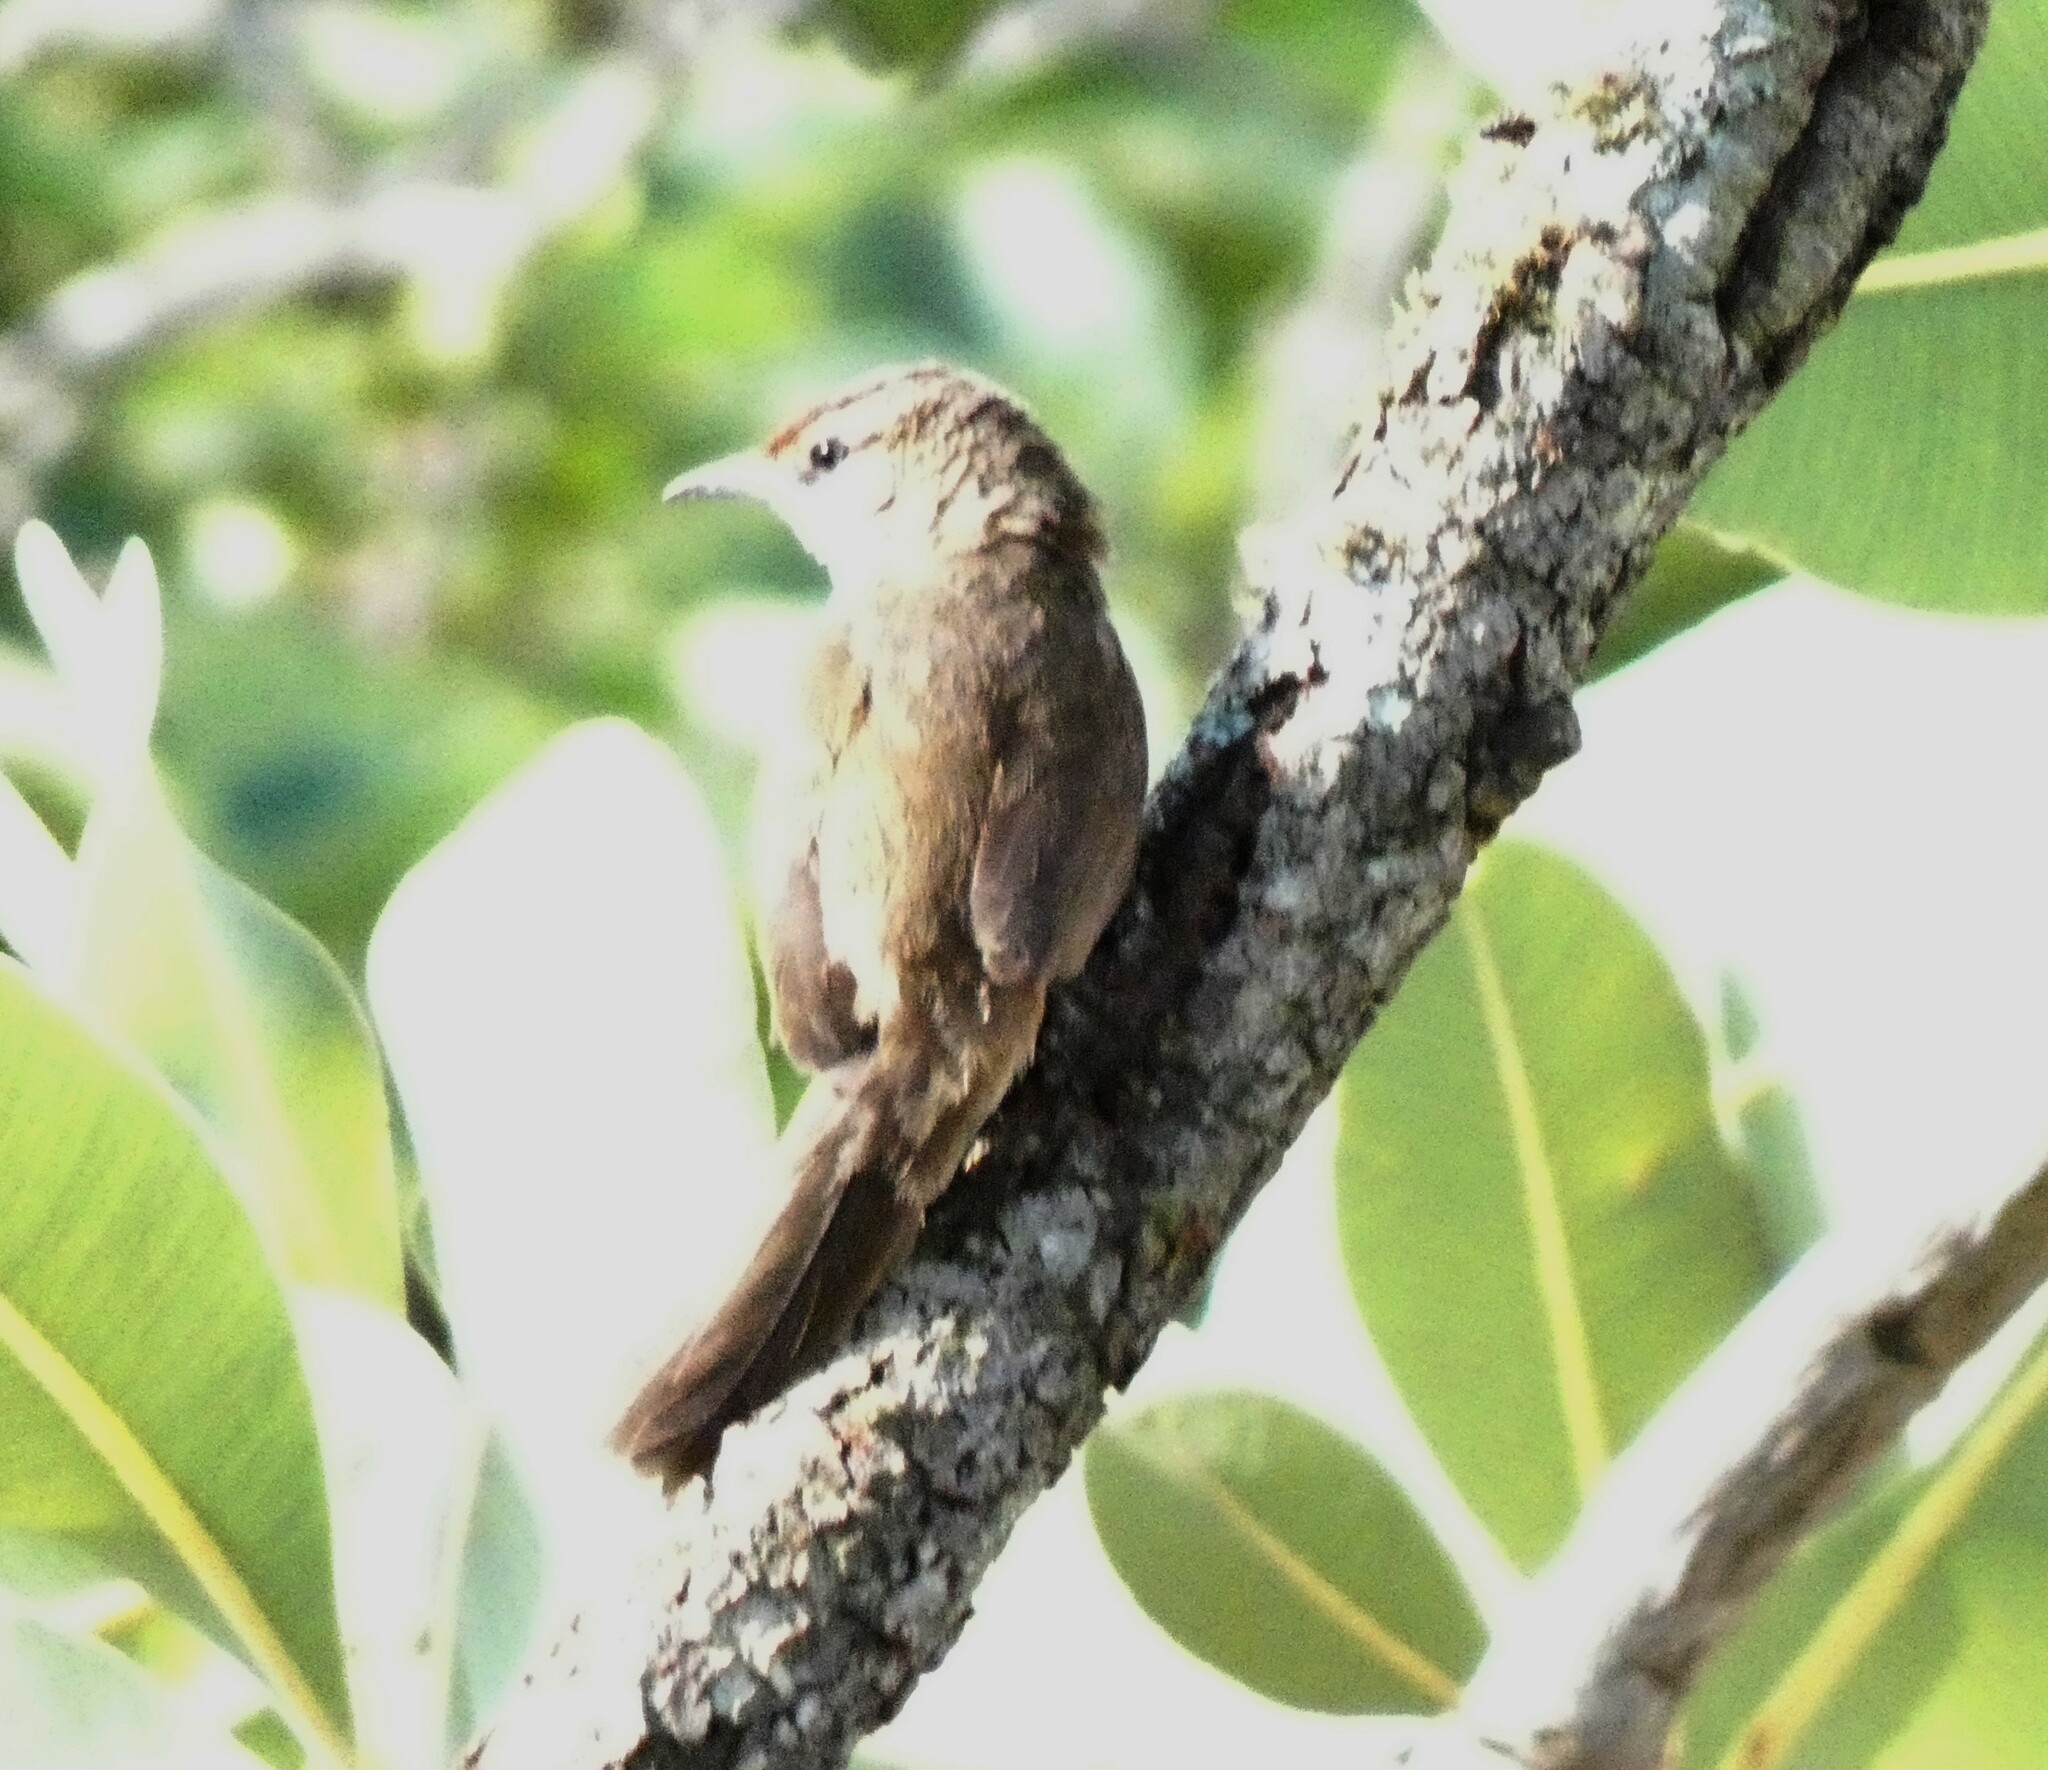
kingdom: Animalia
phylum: Chordata
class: Aves
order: Passeriformes
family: Furnariidae
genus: Phacellodomus
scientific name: Phacellodomus rufifrons
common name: Rufous-fronted thornbird
